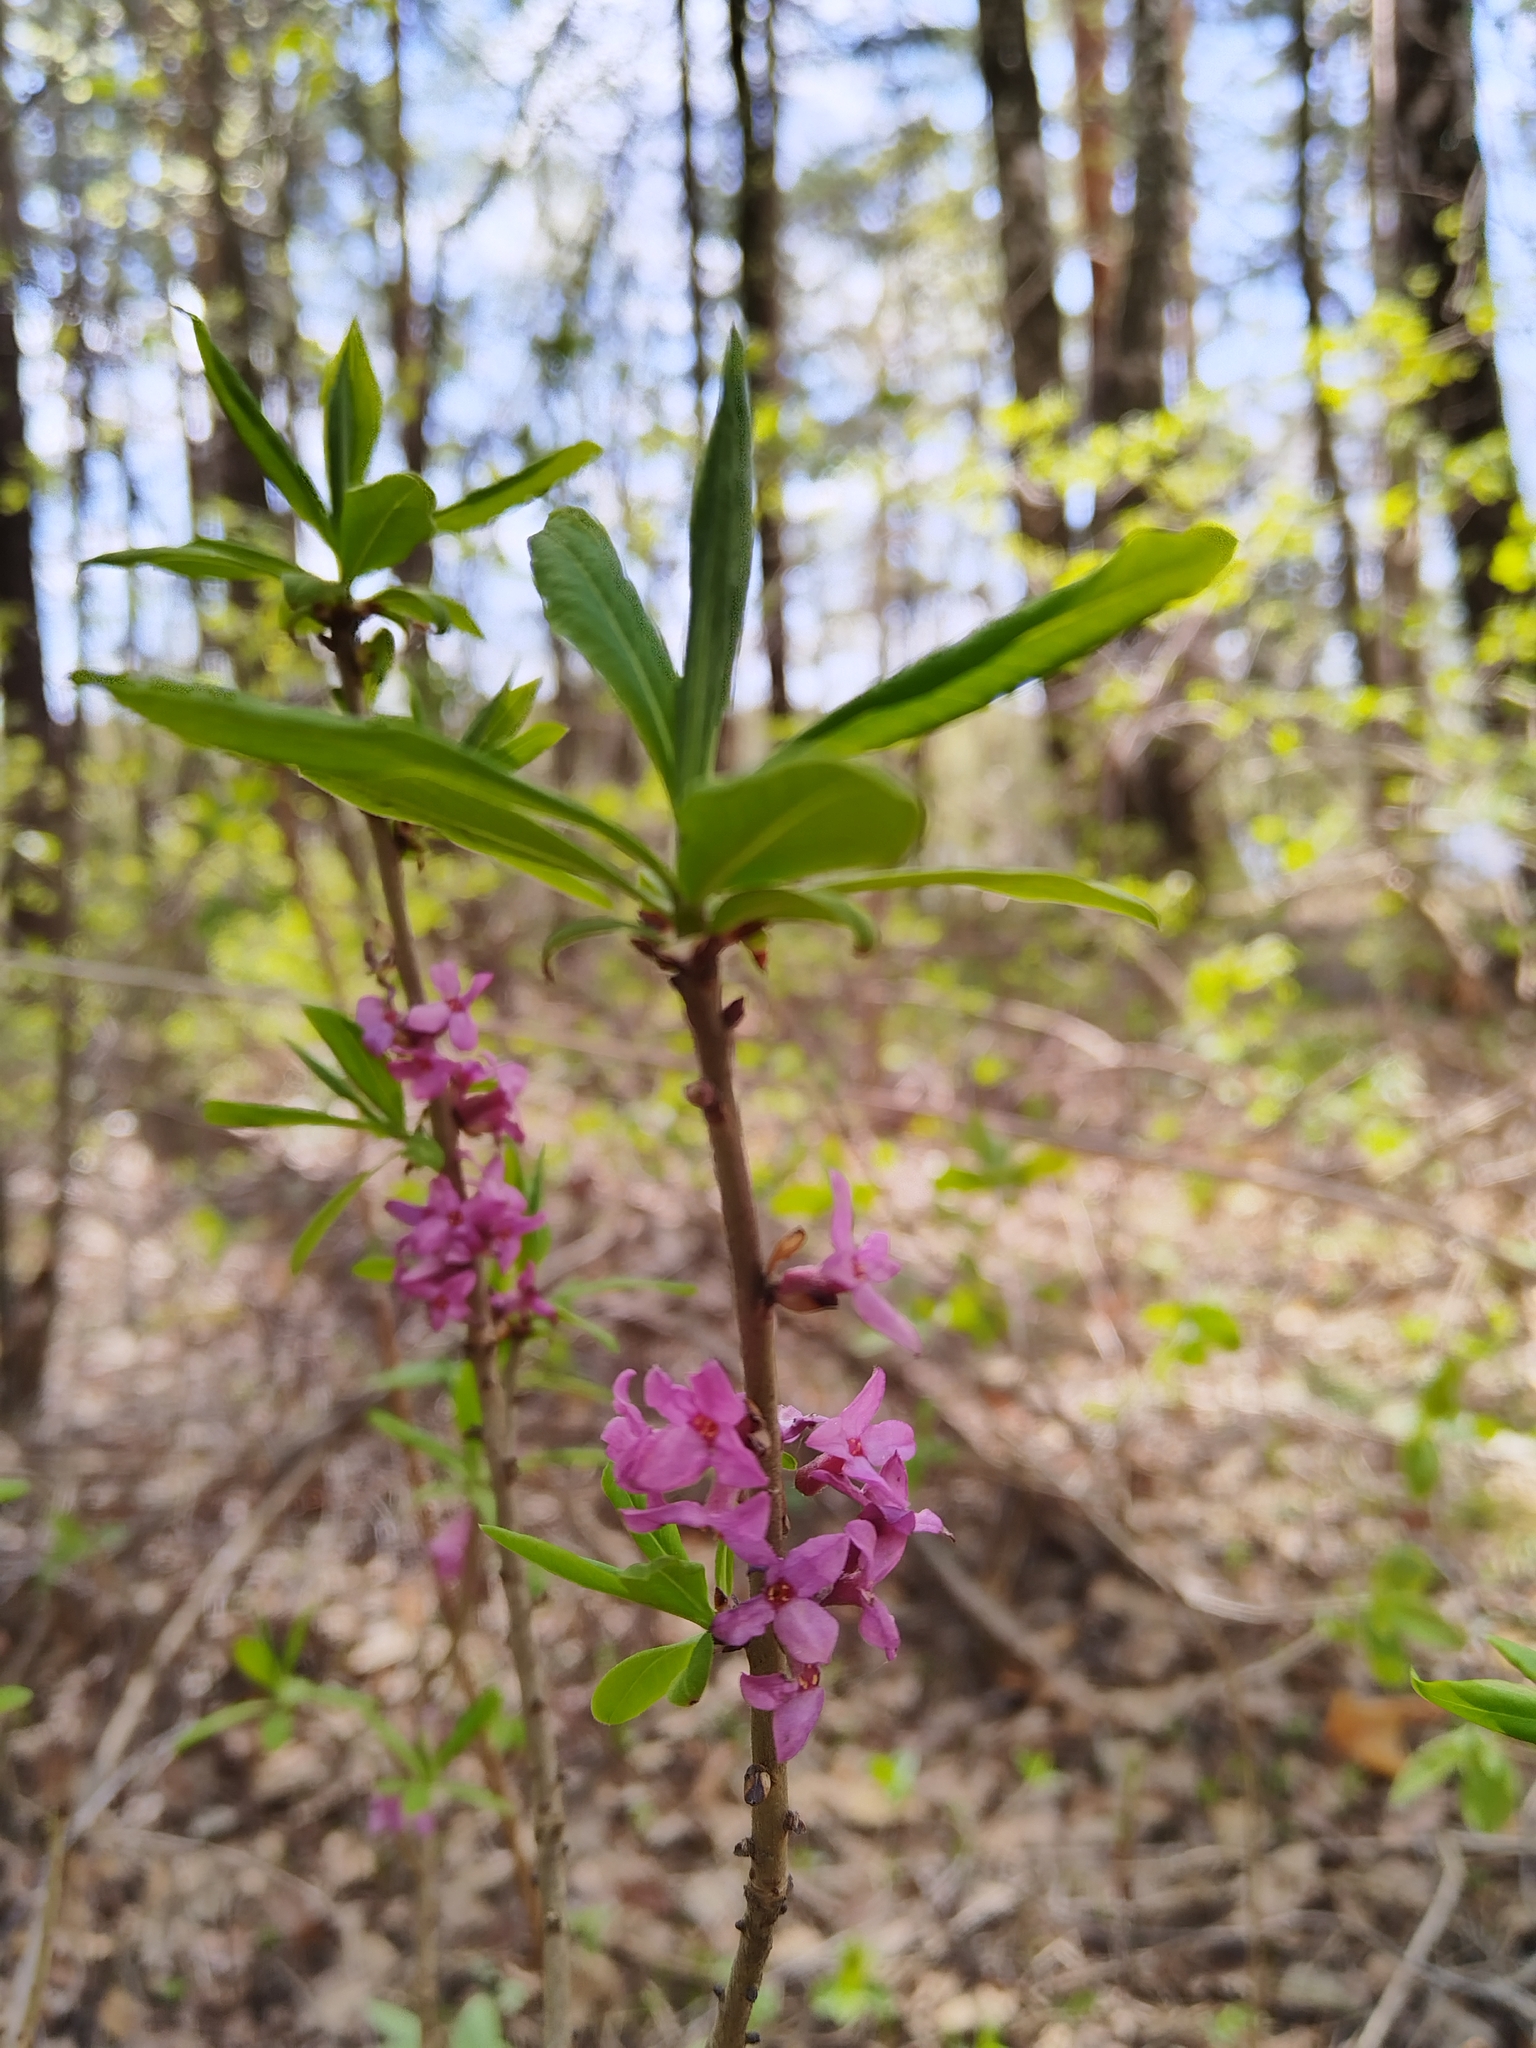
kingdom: Plantae
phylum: Tracheophyta
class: Magnoliopsida
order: Malvales
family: Thymelaeaceae
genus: Daphne
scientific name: Daphne mezereum
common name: Mezereon
